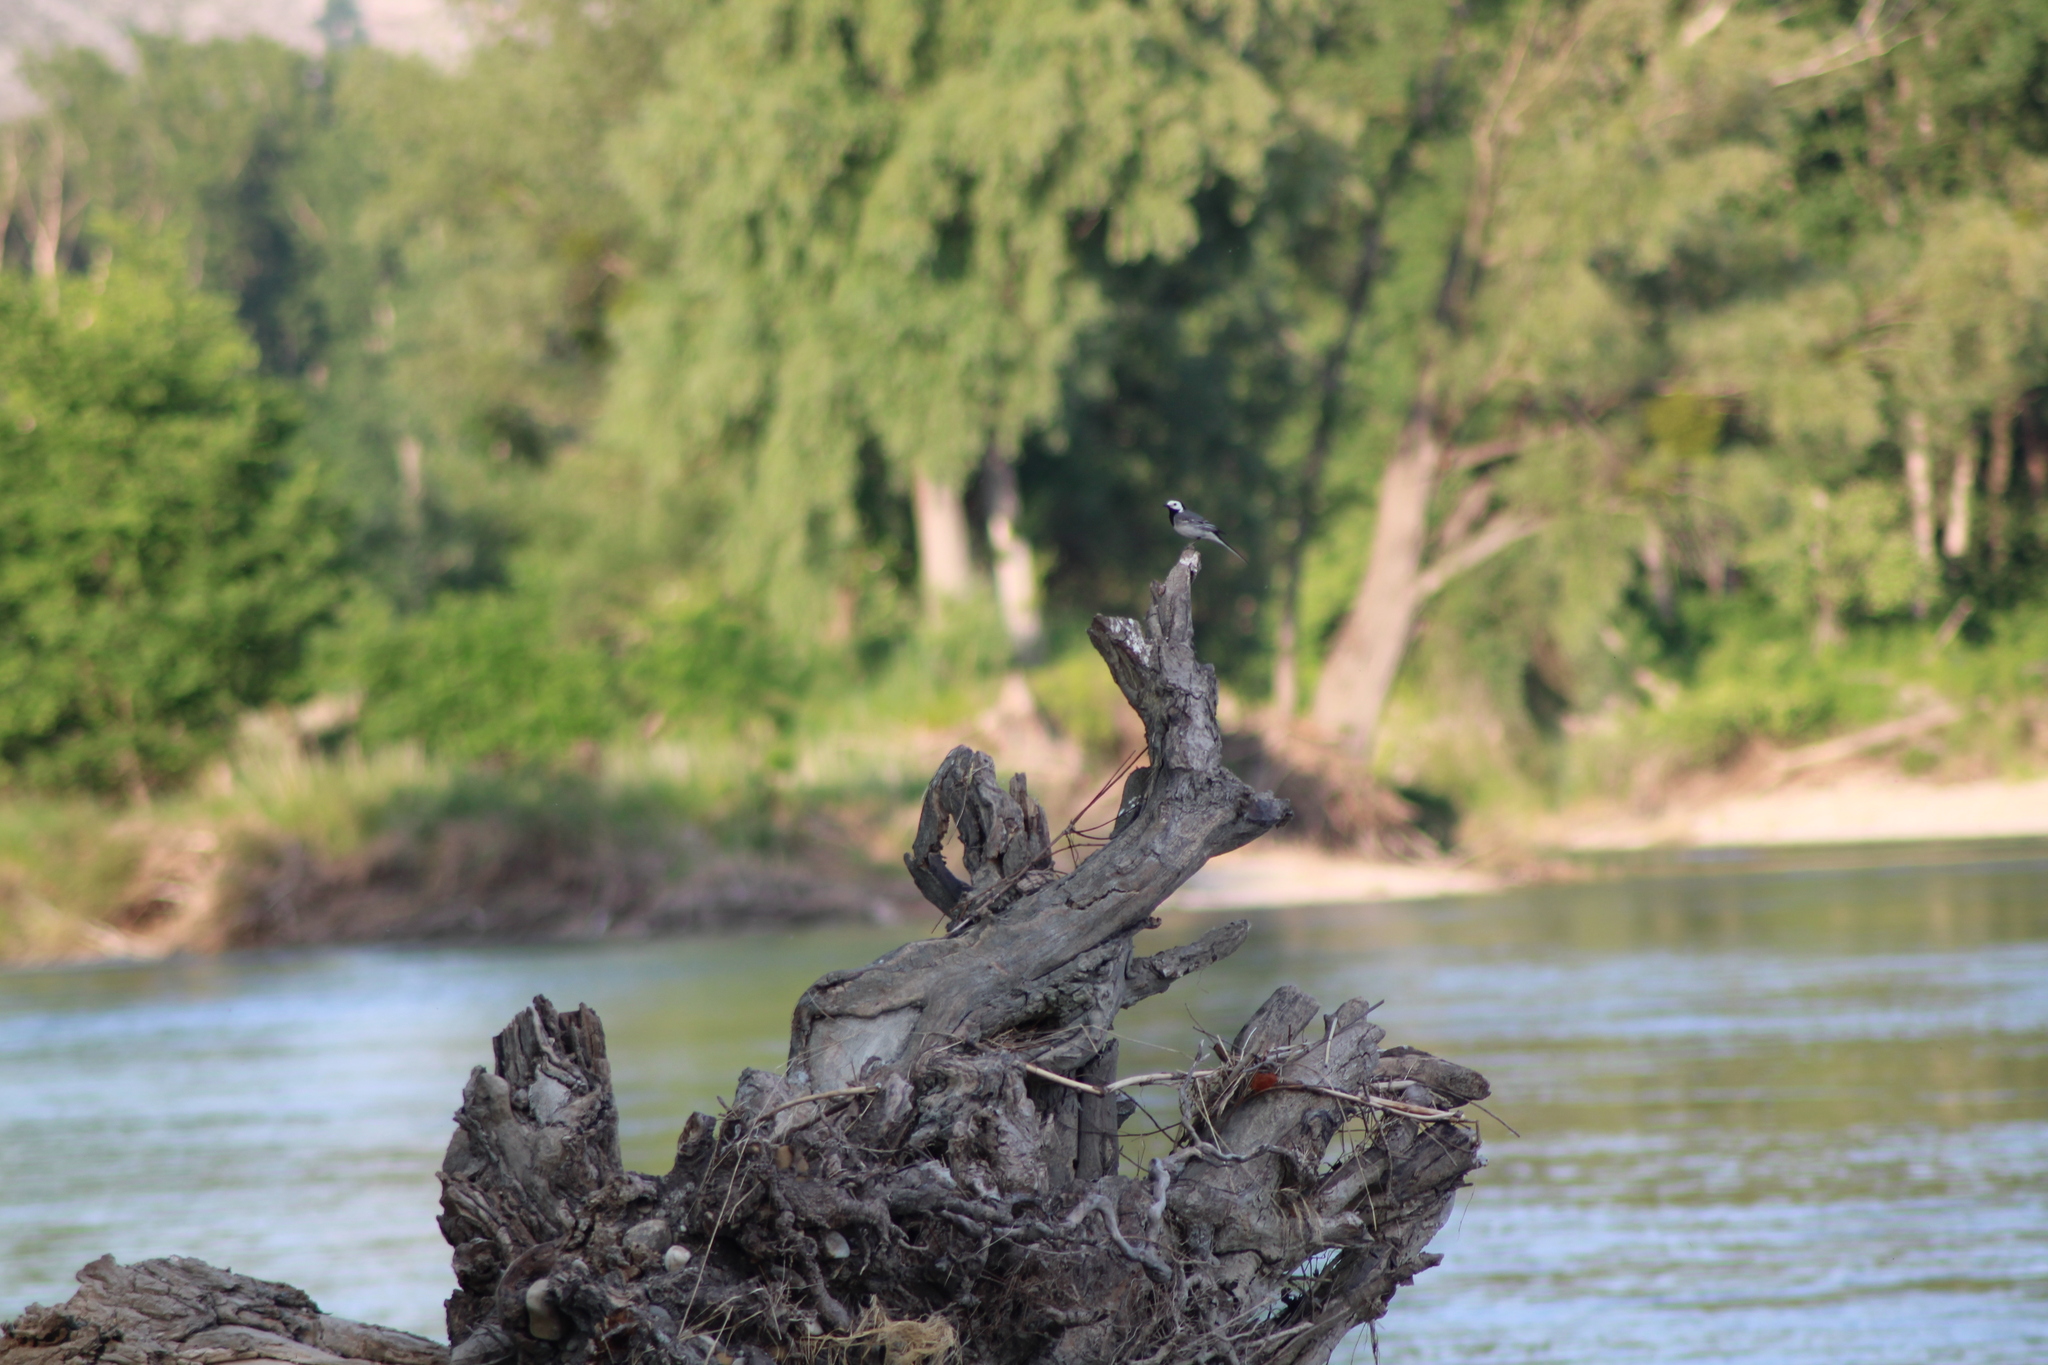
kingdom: Animalia
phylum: Chordata
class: Aves
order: Passeriformes
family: Motacillidae
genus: Motacilla
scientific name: Motacilla alba
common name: White wagtail
